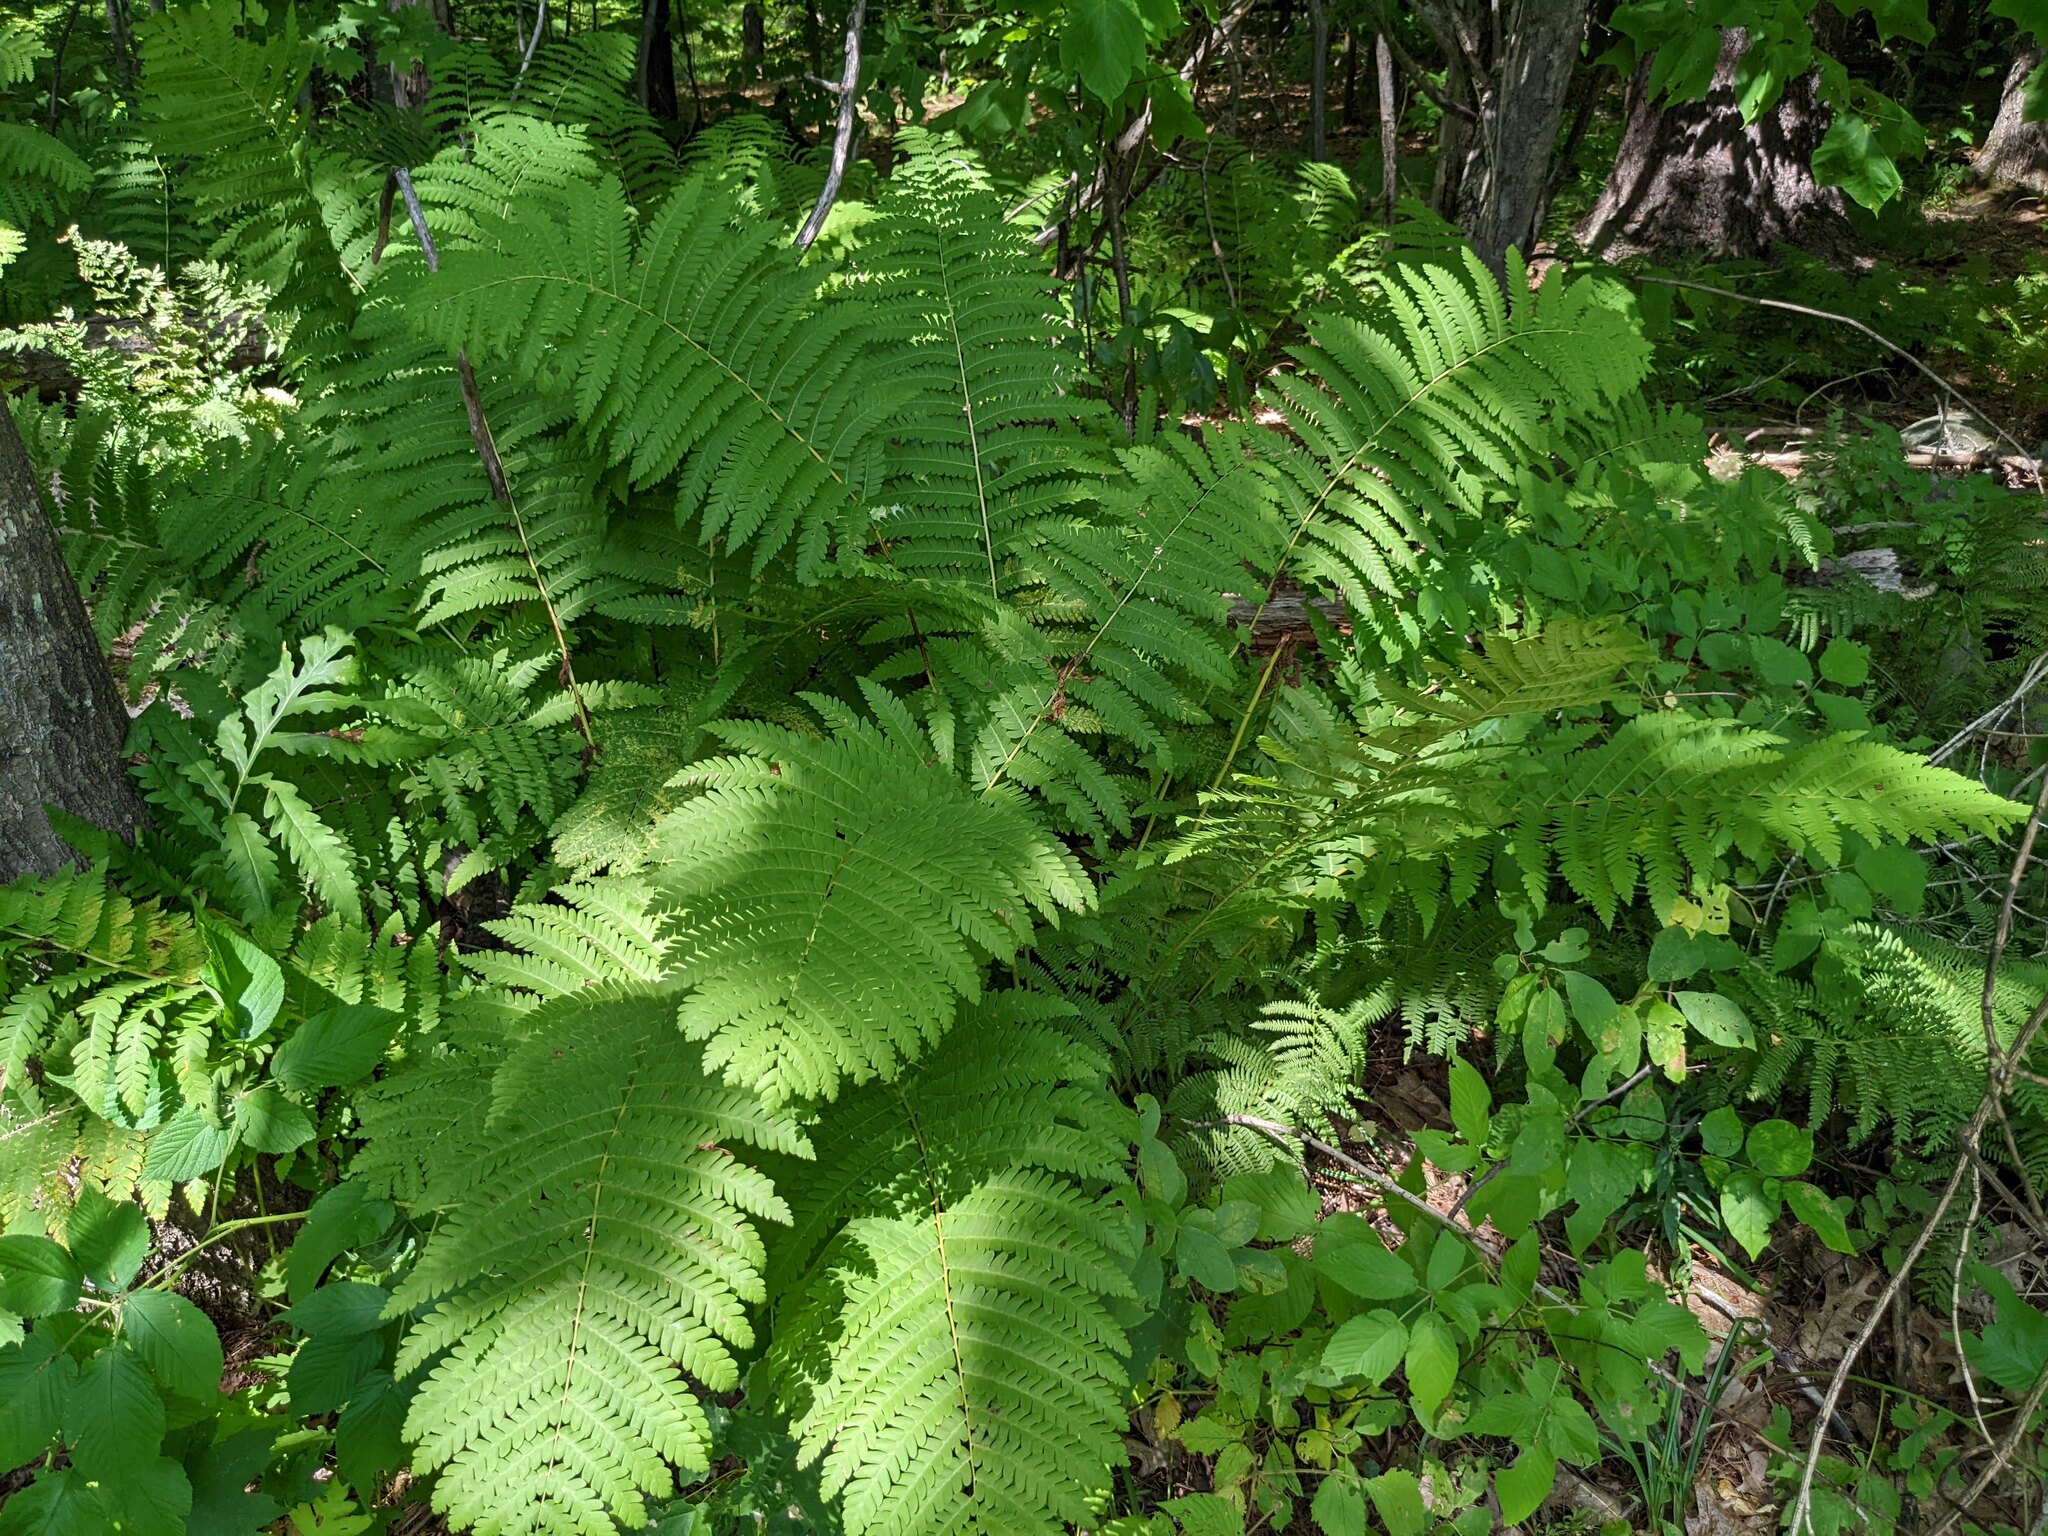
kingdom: Plantae
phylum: Tracheophyta
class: Polypodiopsida
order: Osmundales
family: Osmundaceae
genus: Claytosmunda
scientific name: Claytosmunda claytoniana
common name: Clayton's fern
